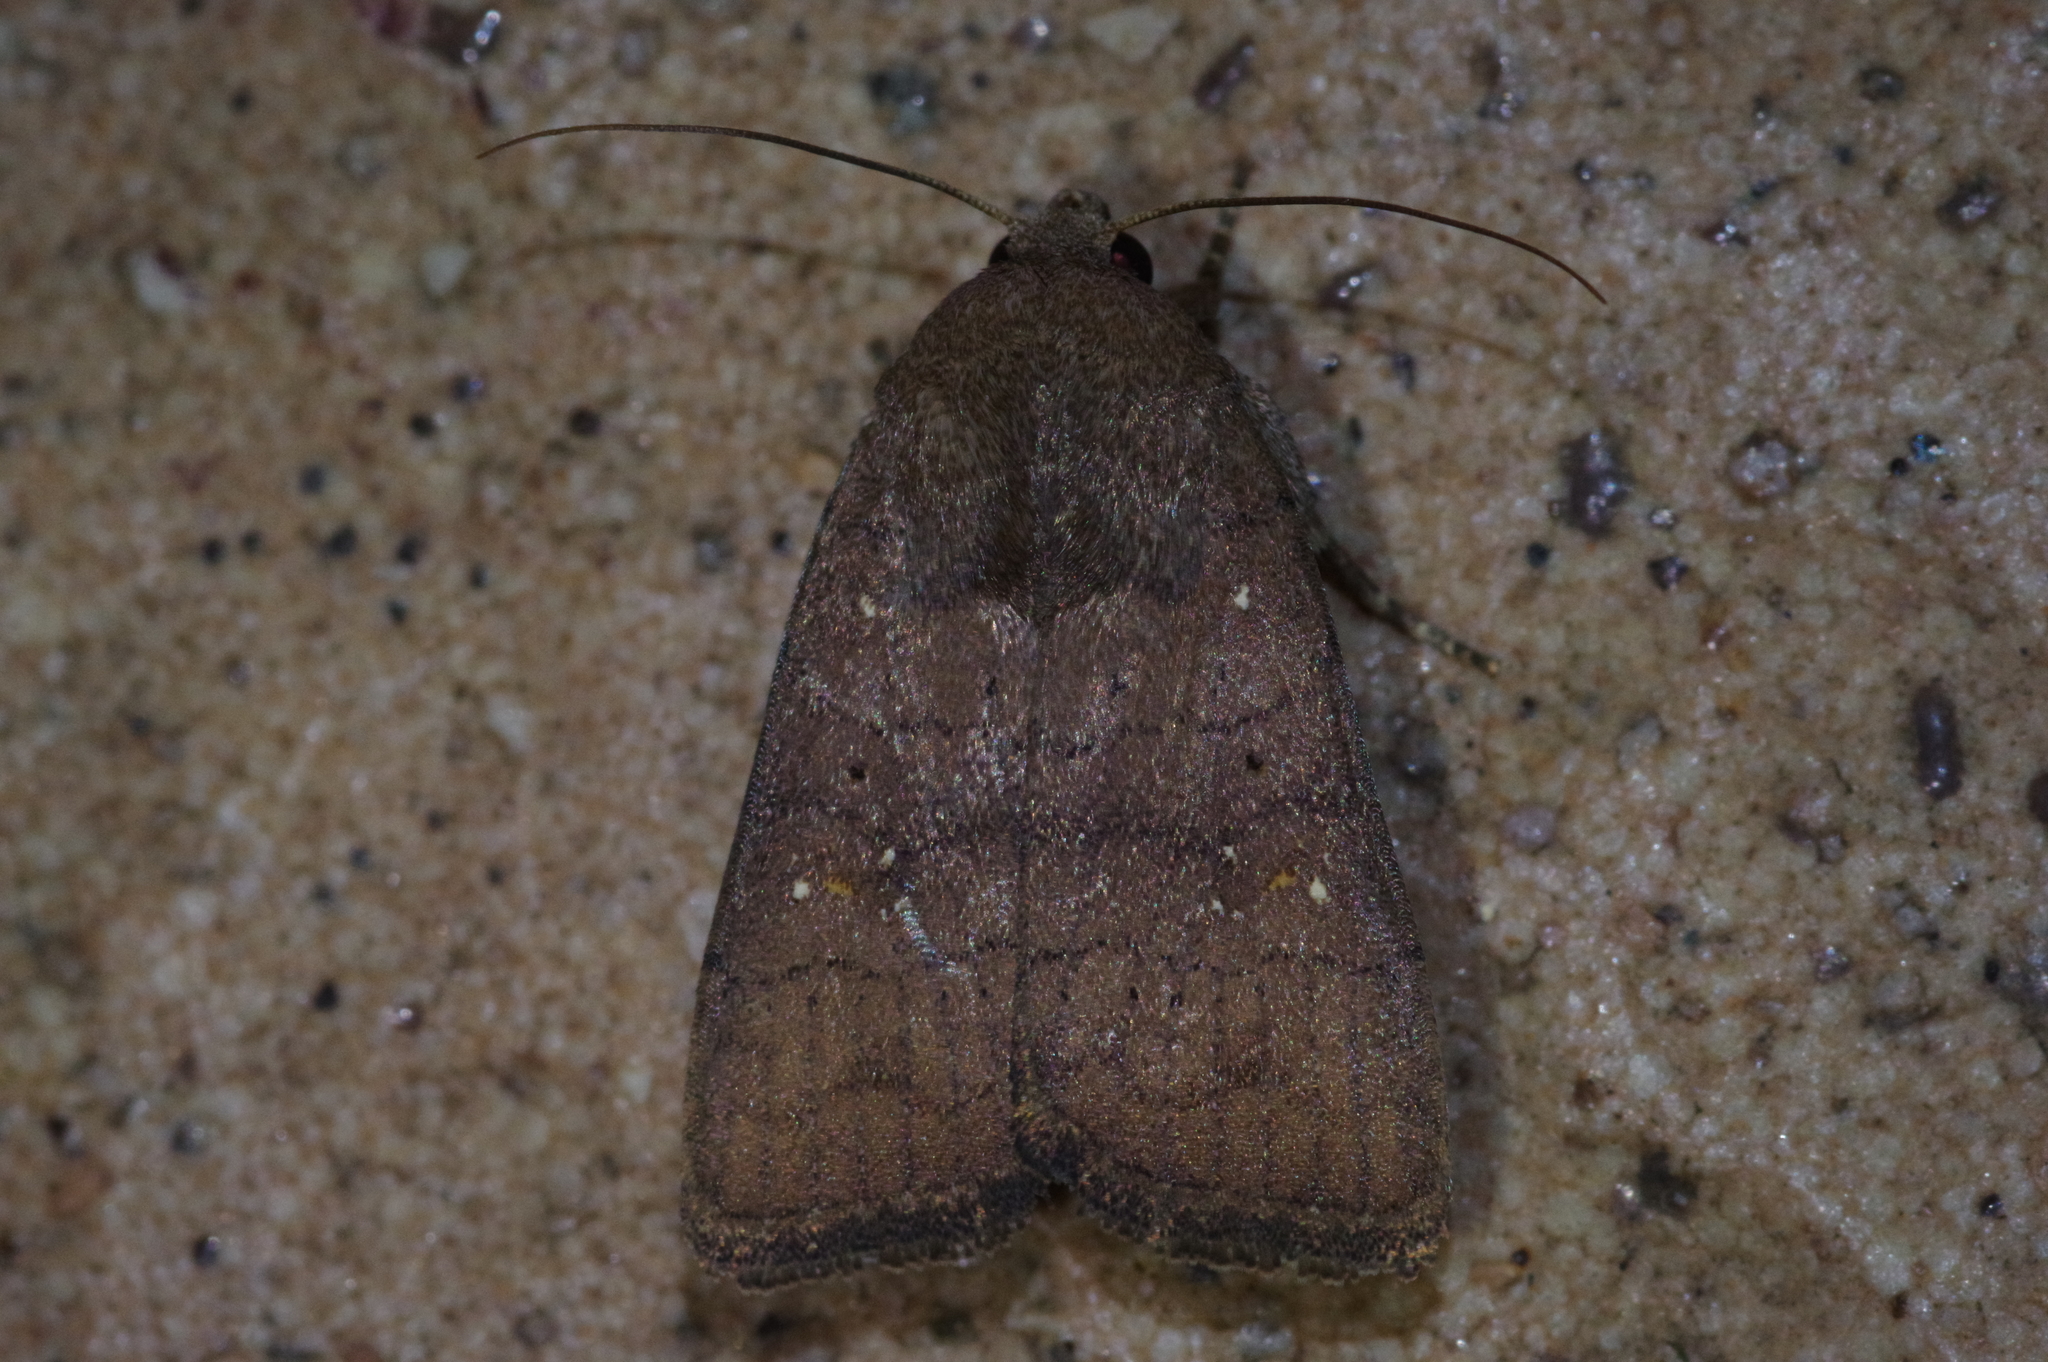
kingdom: Animalia
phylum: Arthropoda
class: Insecta
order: Lepidoptera
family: Noctuidae
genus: Athetis
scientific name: Athetis stellata
